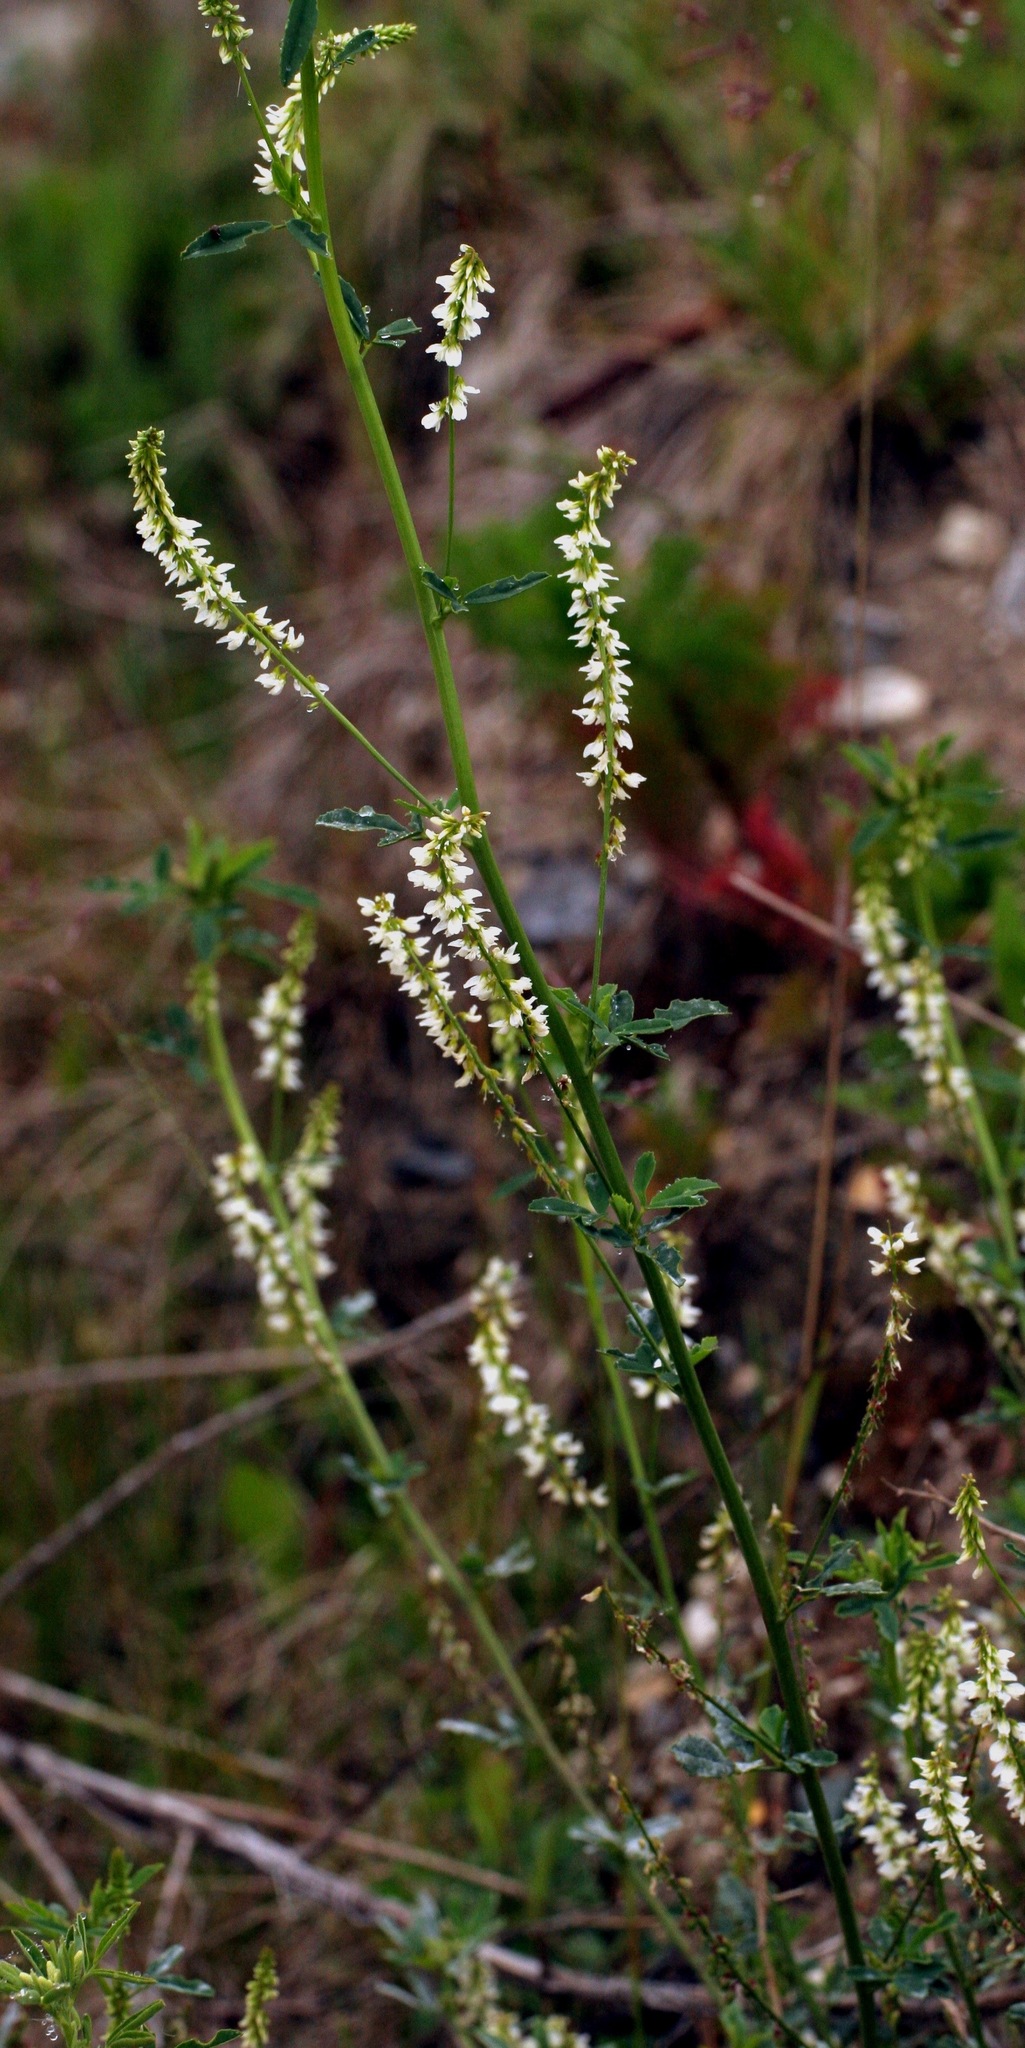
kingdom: Plantae
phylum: Tracheophyta
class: Magnoliopsida
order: Fabales
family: Fabaceae
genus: Melilotus
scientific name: Melilotus albus
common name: White melilot
